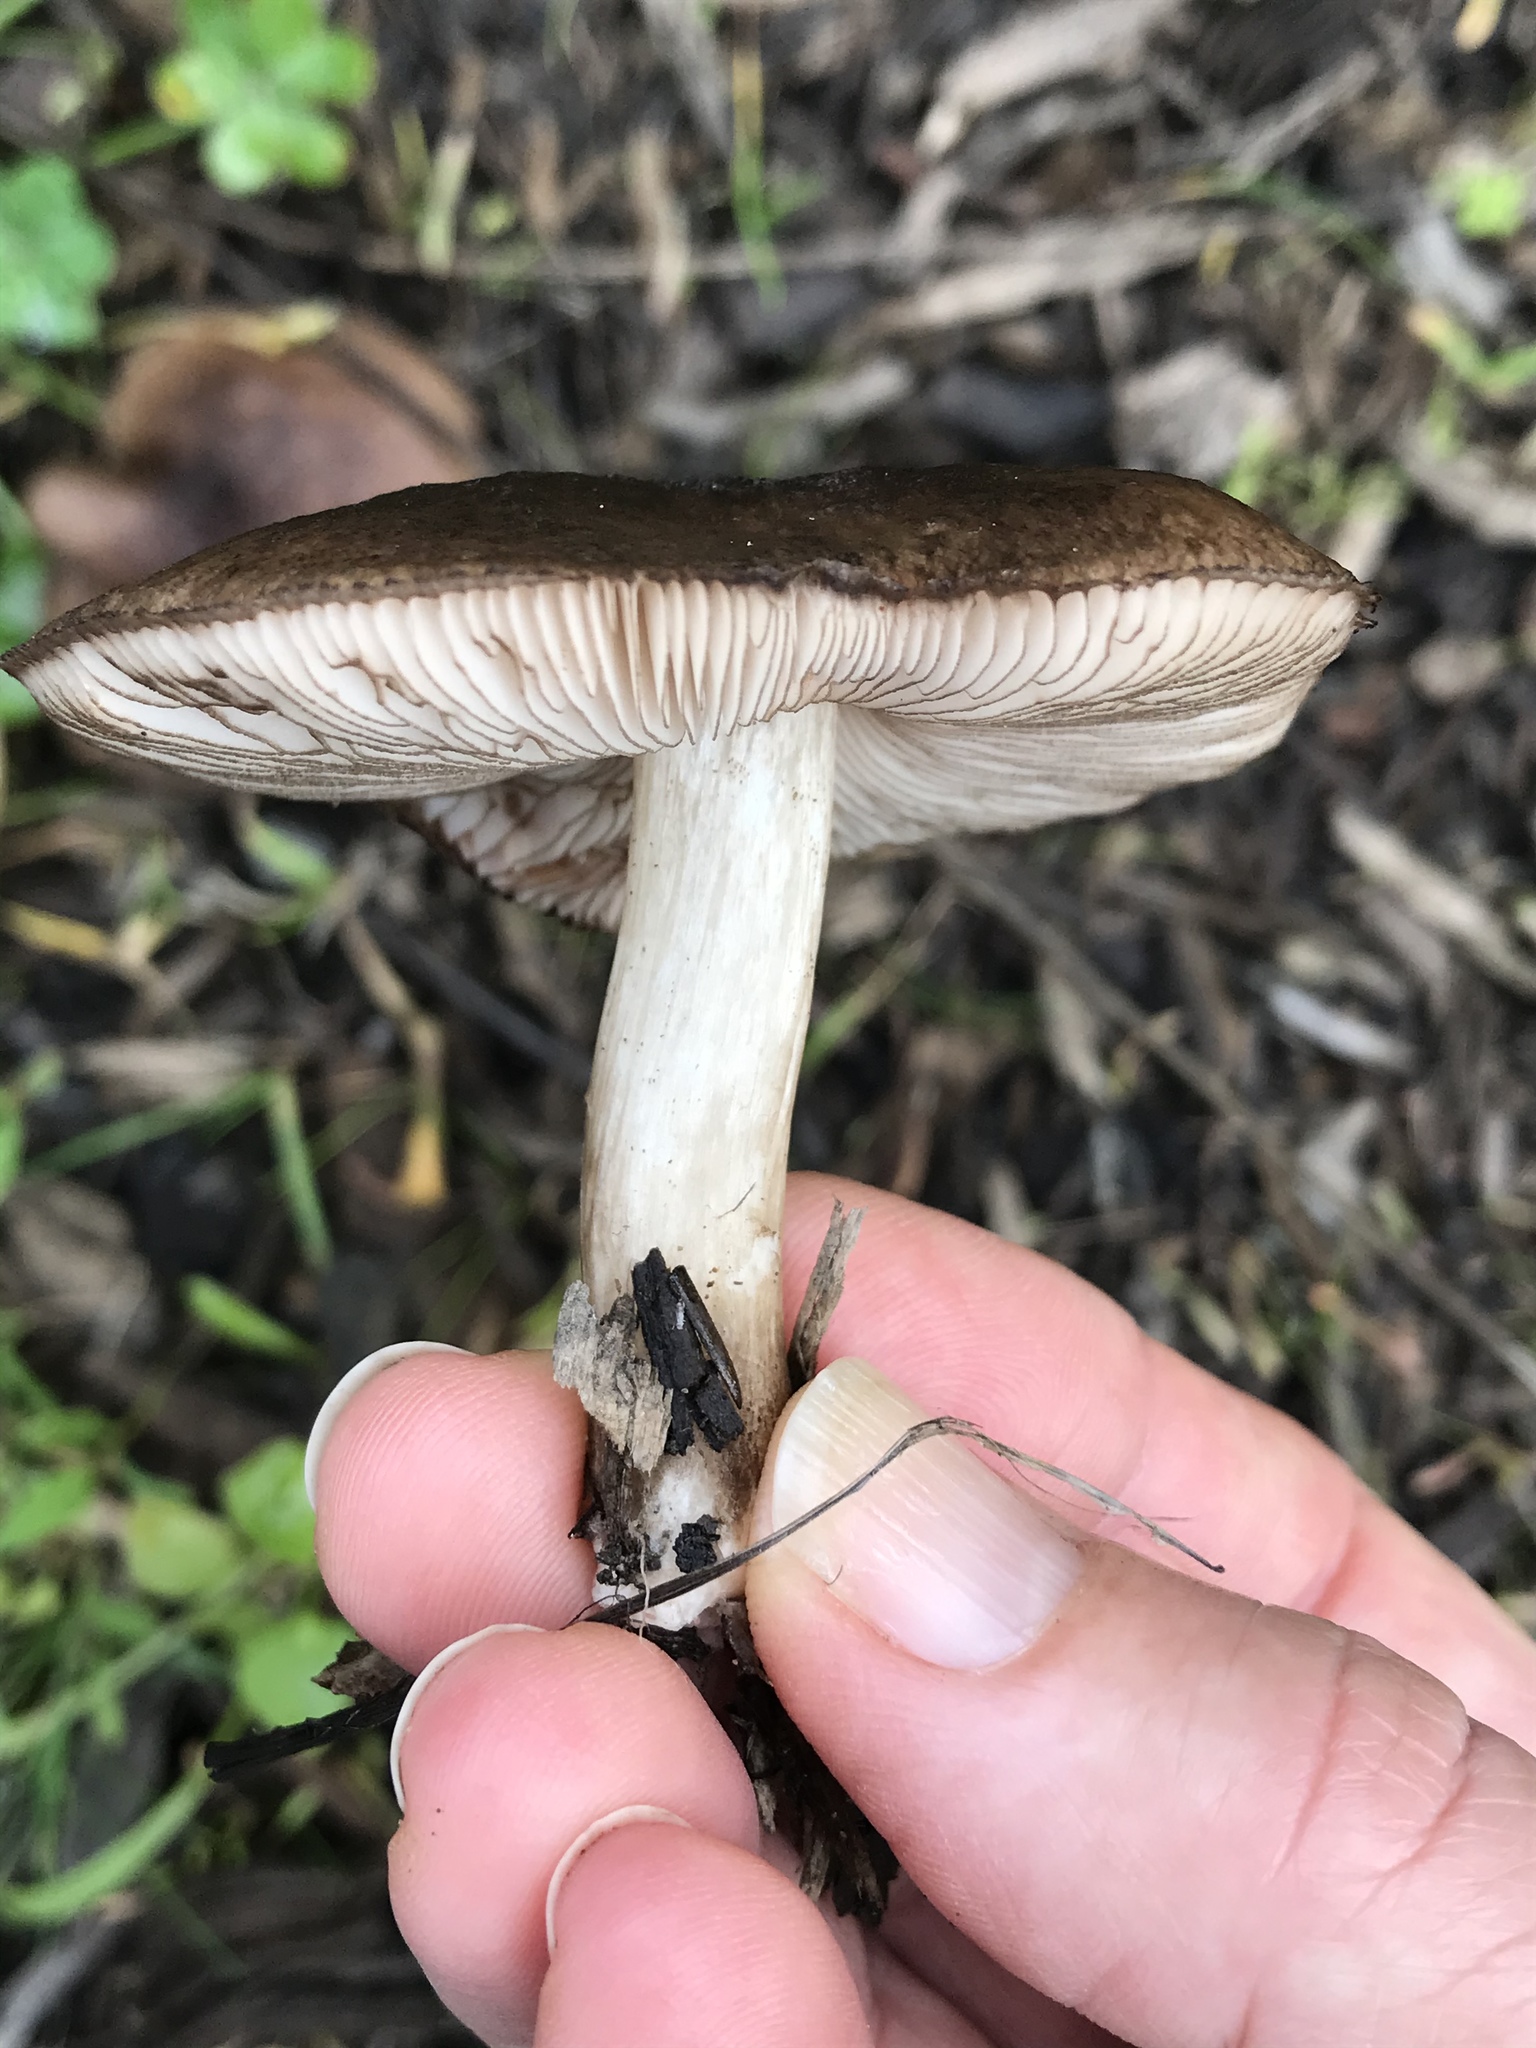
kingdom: Fungi
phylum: Basidiomycota
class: Agaricomycetes
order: Agaricales
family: Pluteaceae
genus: Pluteus
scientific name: Pluteus atromarginatus
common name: Blackedged shield
